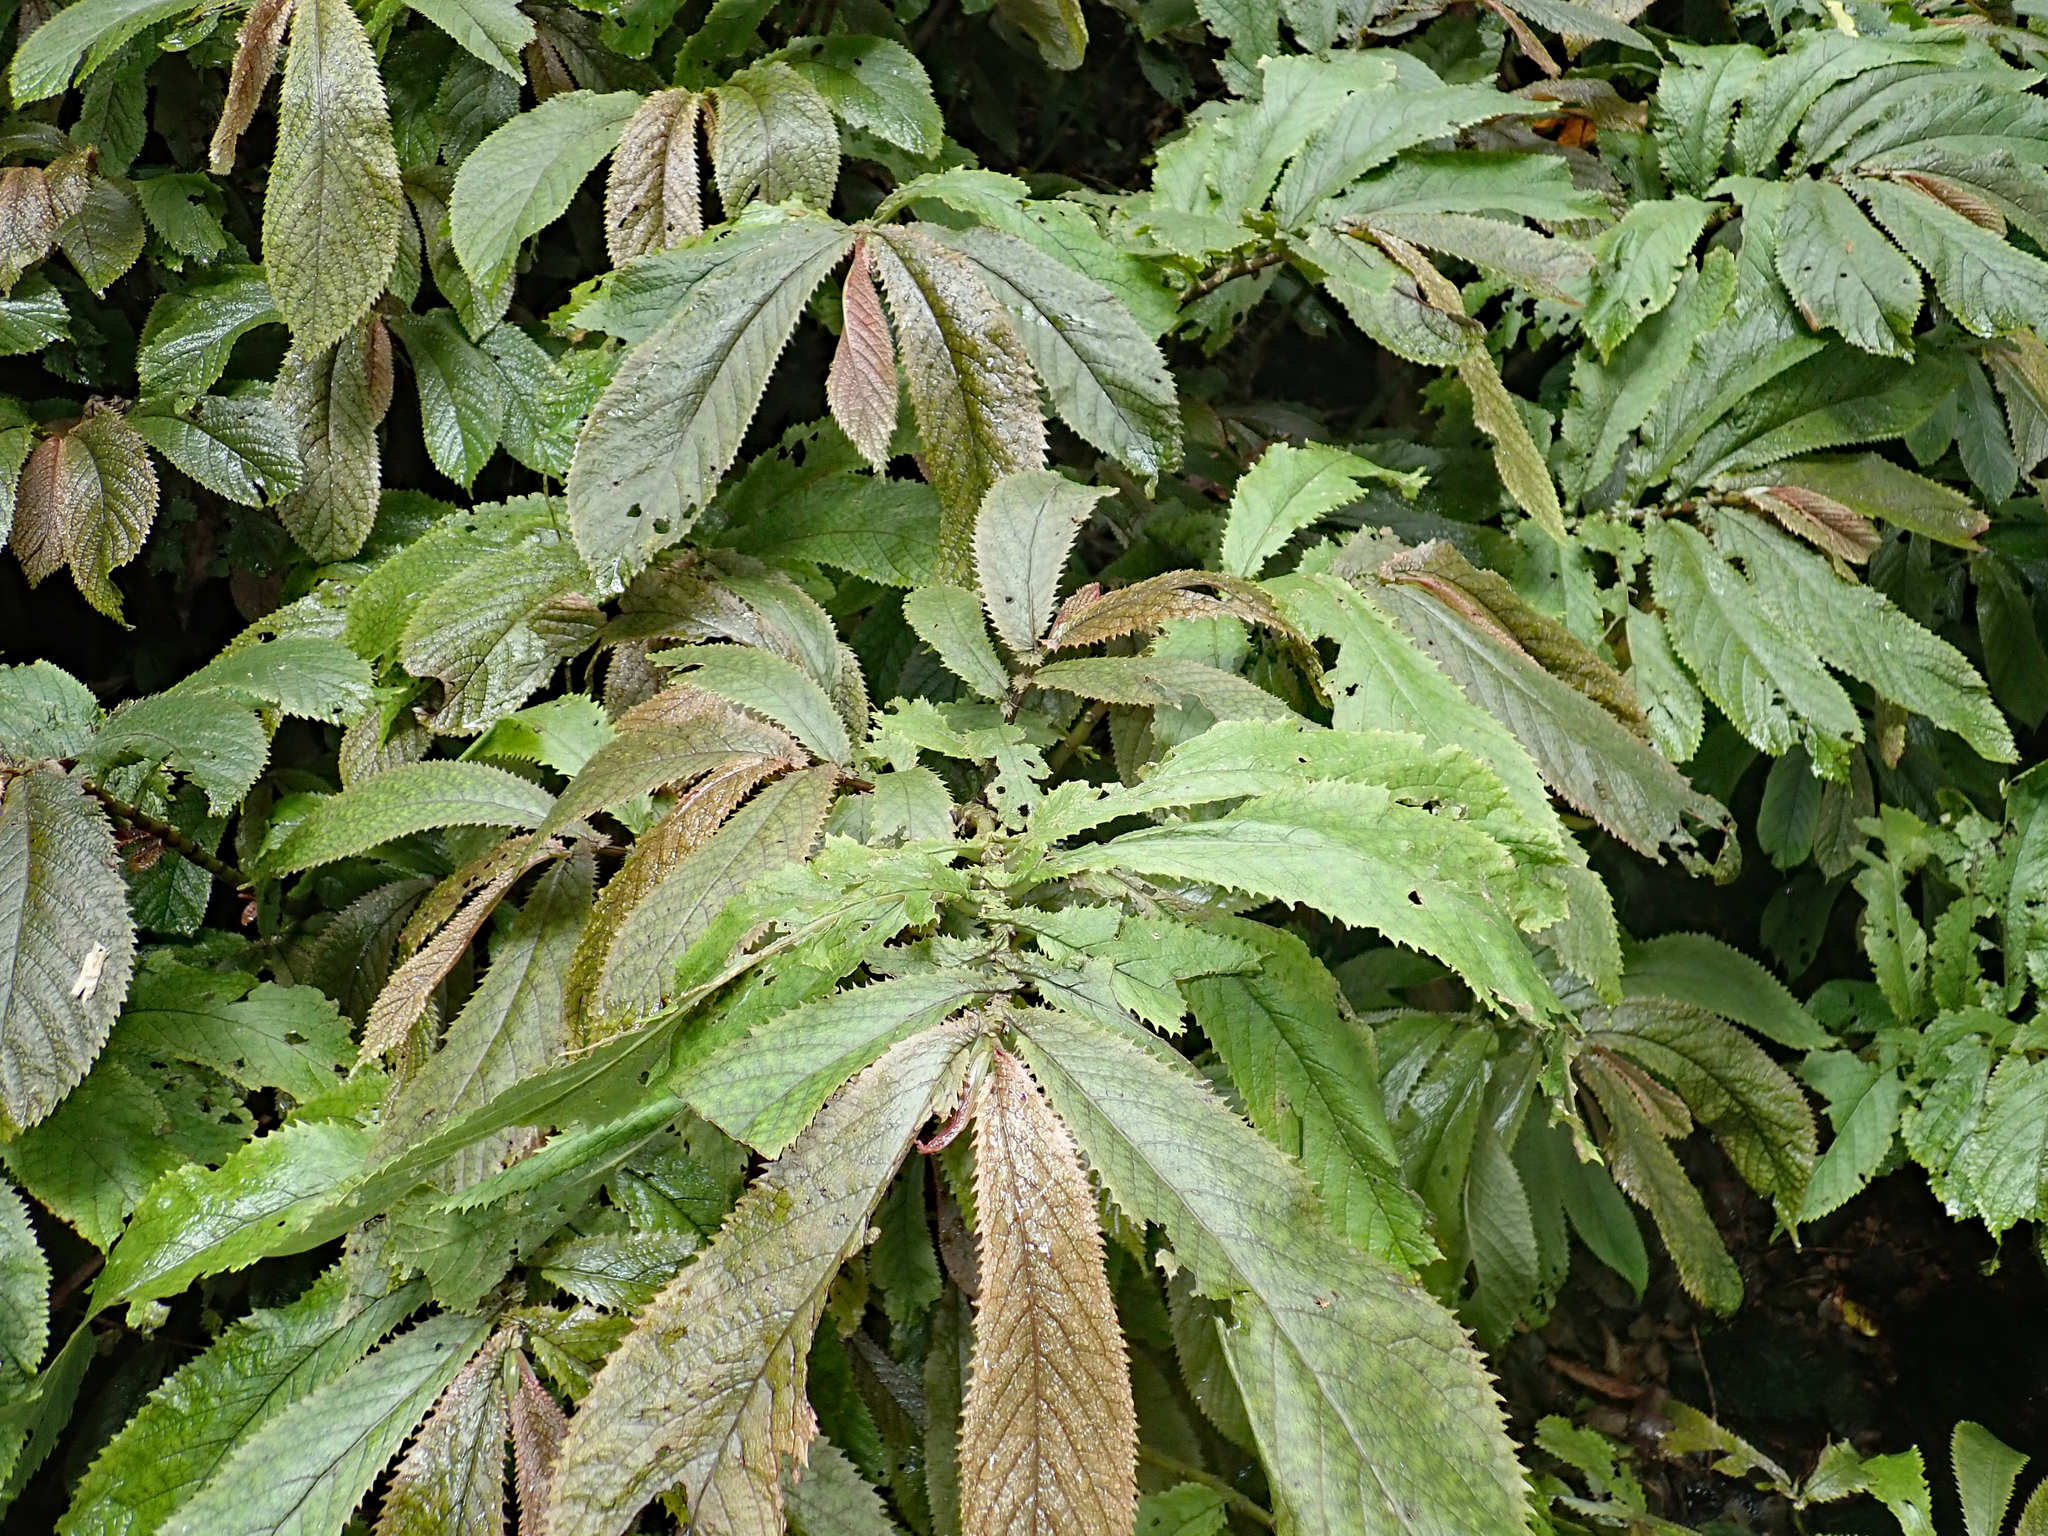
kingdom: Plantae
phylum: Tracheophyta
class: Magnoliopsida
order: Rosales
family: Urticaceae
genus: Elatostema
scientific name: Elatostema rugosum
